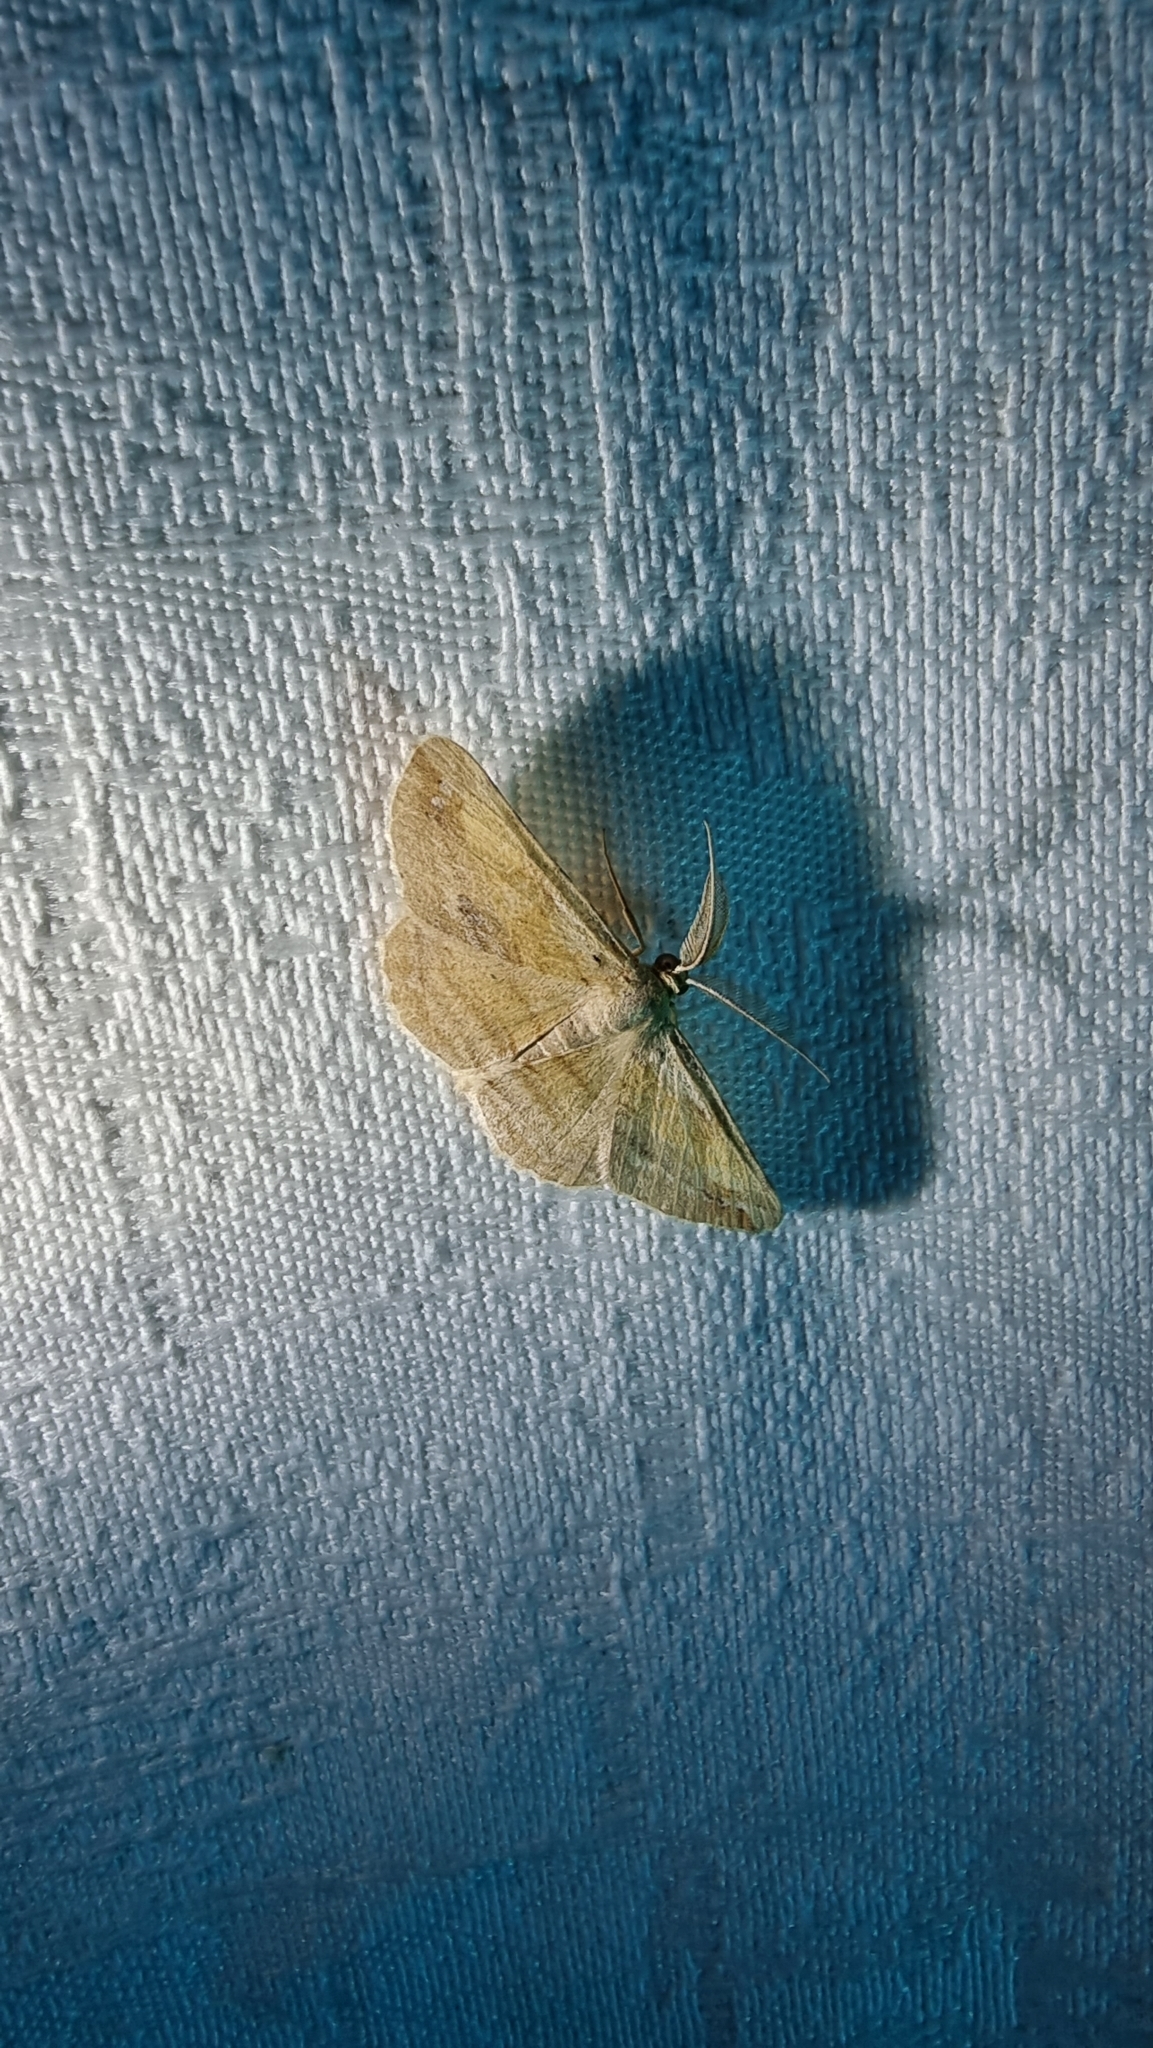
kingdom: Animalia
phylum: Arthropoda
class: Insecta
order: Lepidoptera
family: Geometridae
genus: Syneora
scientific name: Syneora lithina
